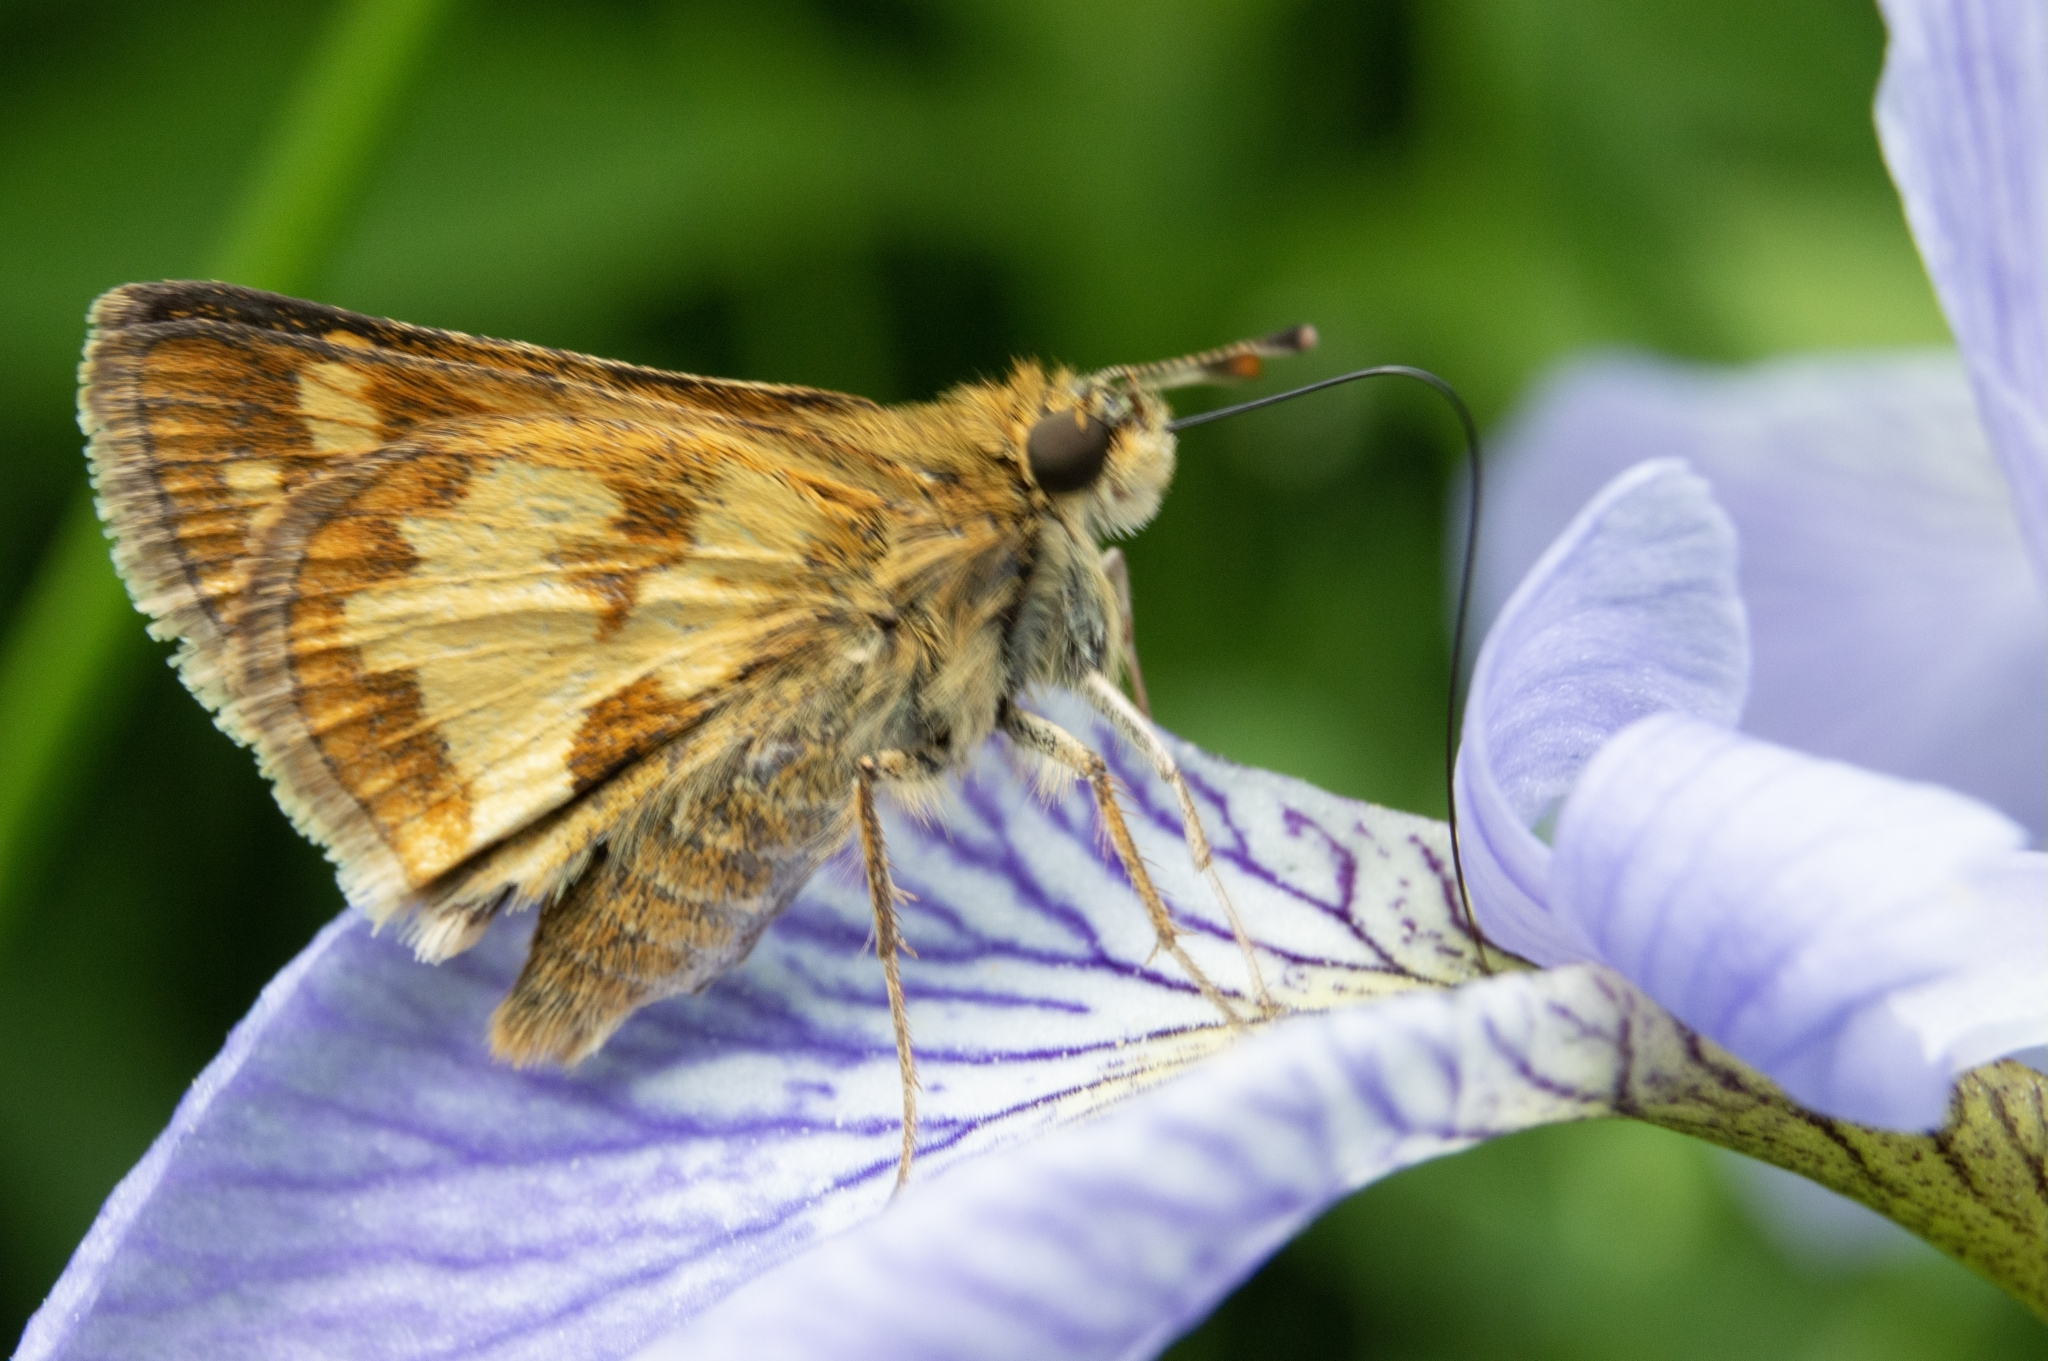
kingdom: Animalia
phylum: Arthropoda
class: Insecta
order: Lepidoptera
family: Hesperiidae
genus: Polites
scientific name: Polites coras
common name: Peck's skipper
